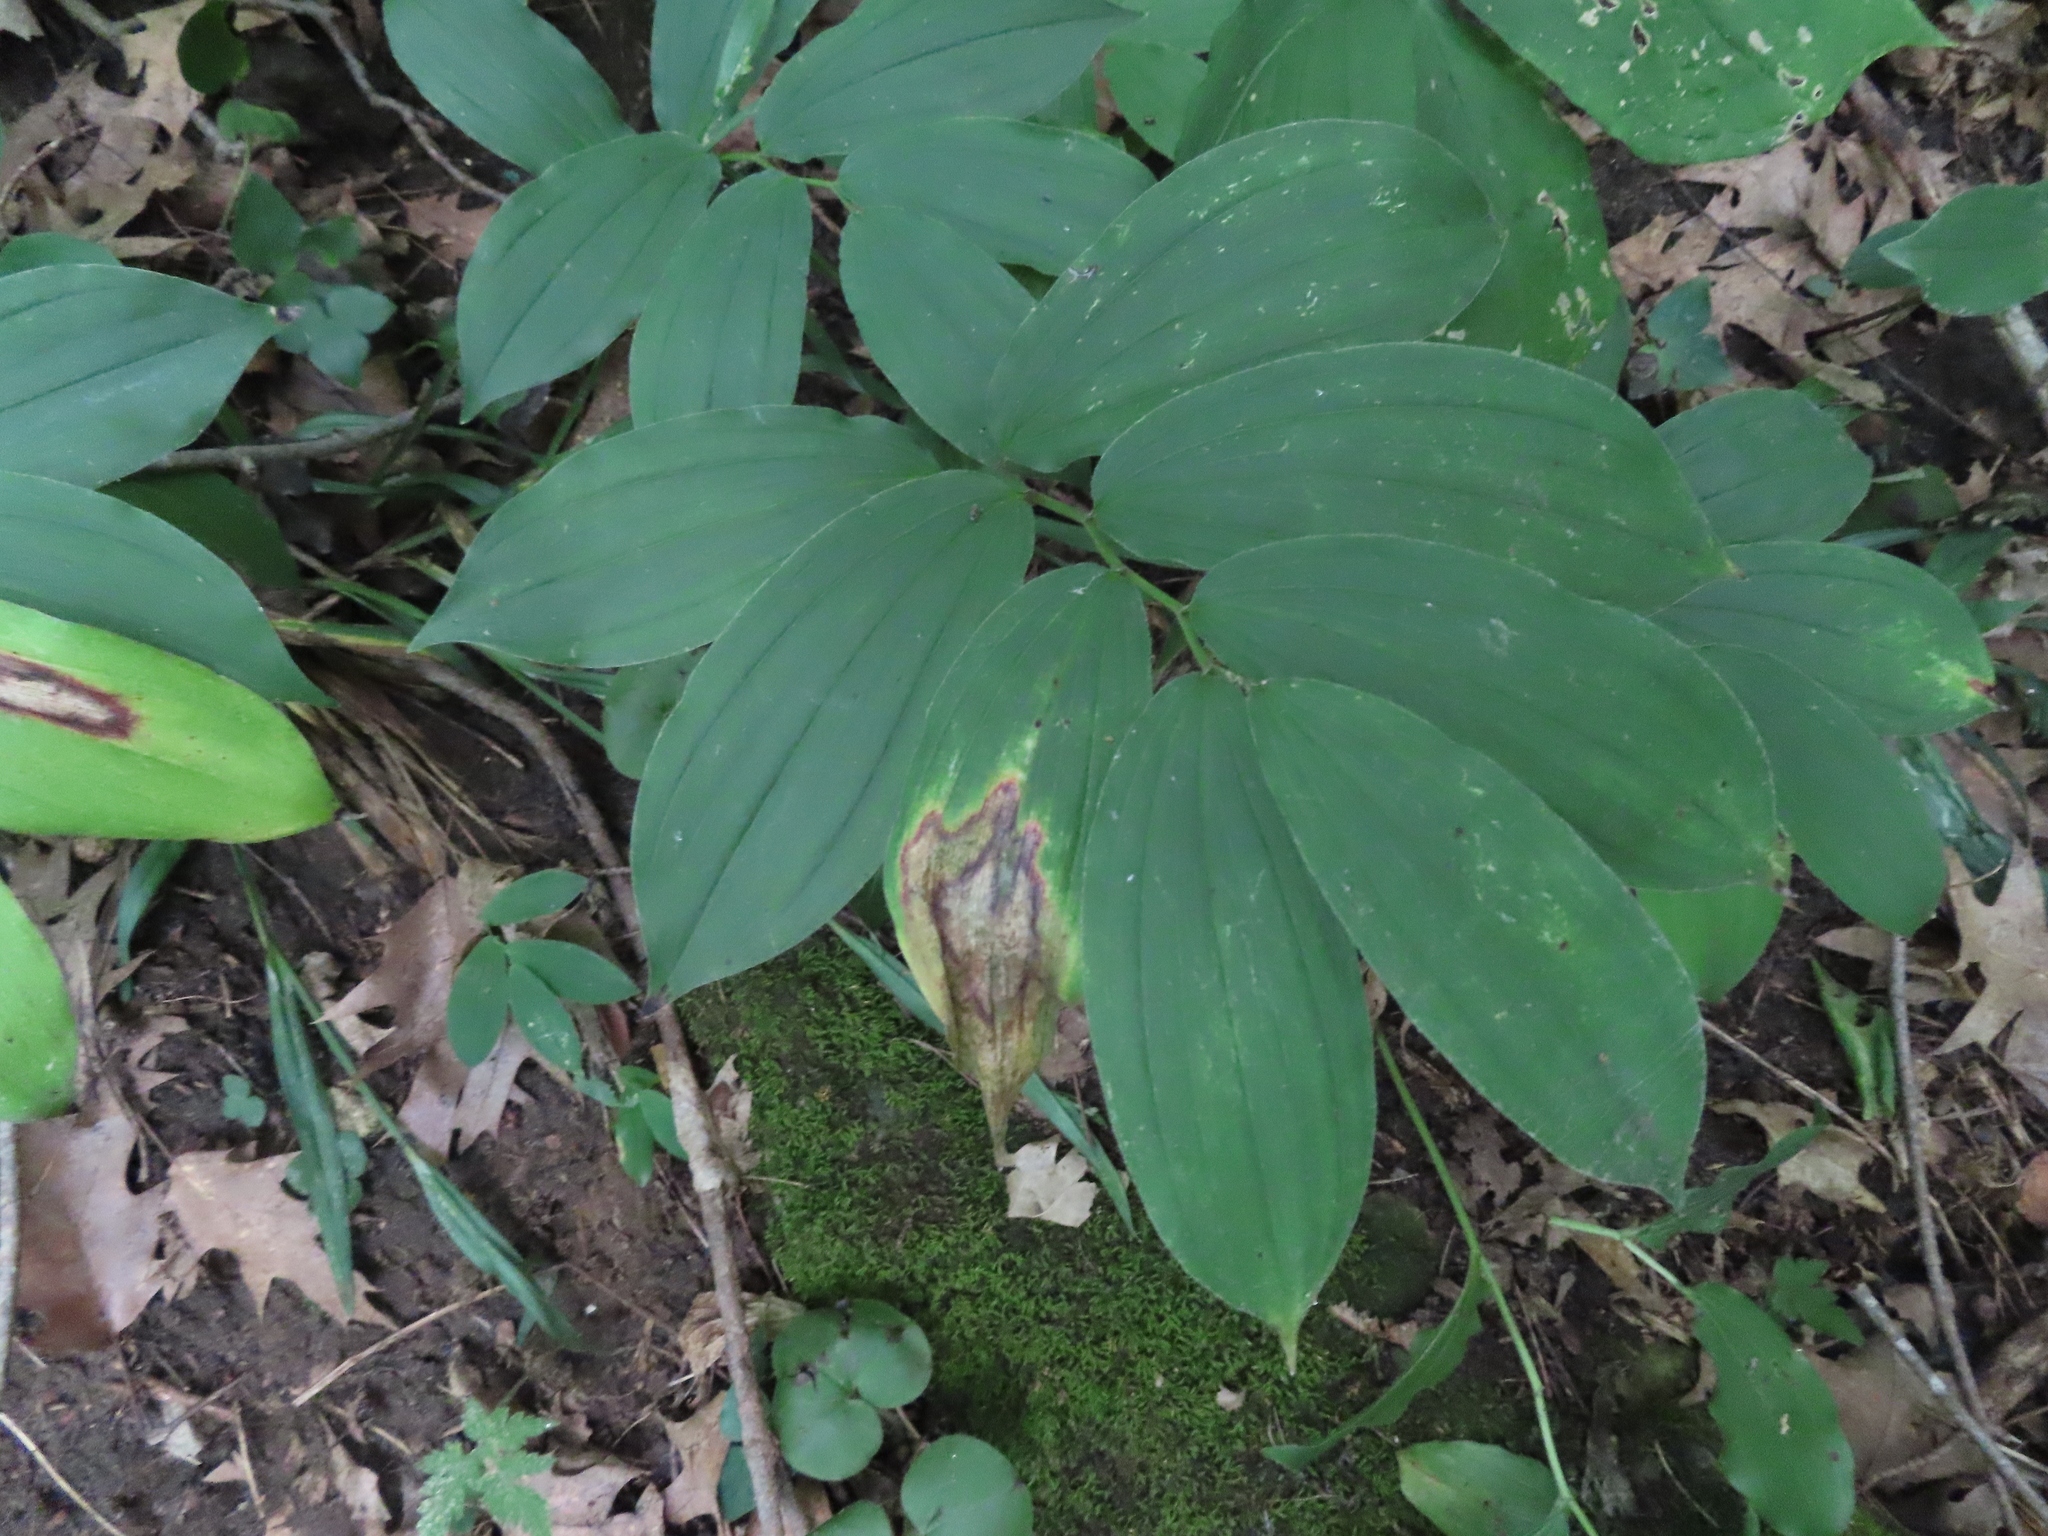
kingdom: Plantae
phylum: Tracheophyta
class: Liliopsida
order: Asparagales
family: Asparagaceae
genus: Maianthemum
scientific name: Maianthemum racemosum
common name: False spikenard
